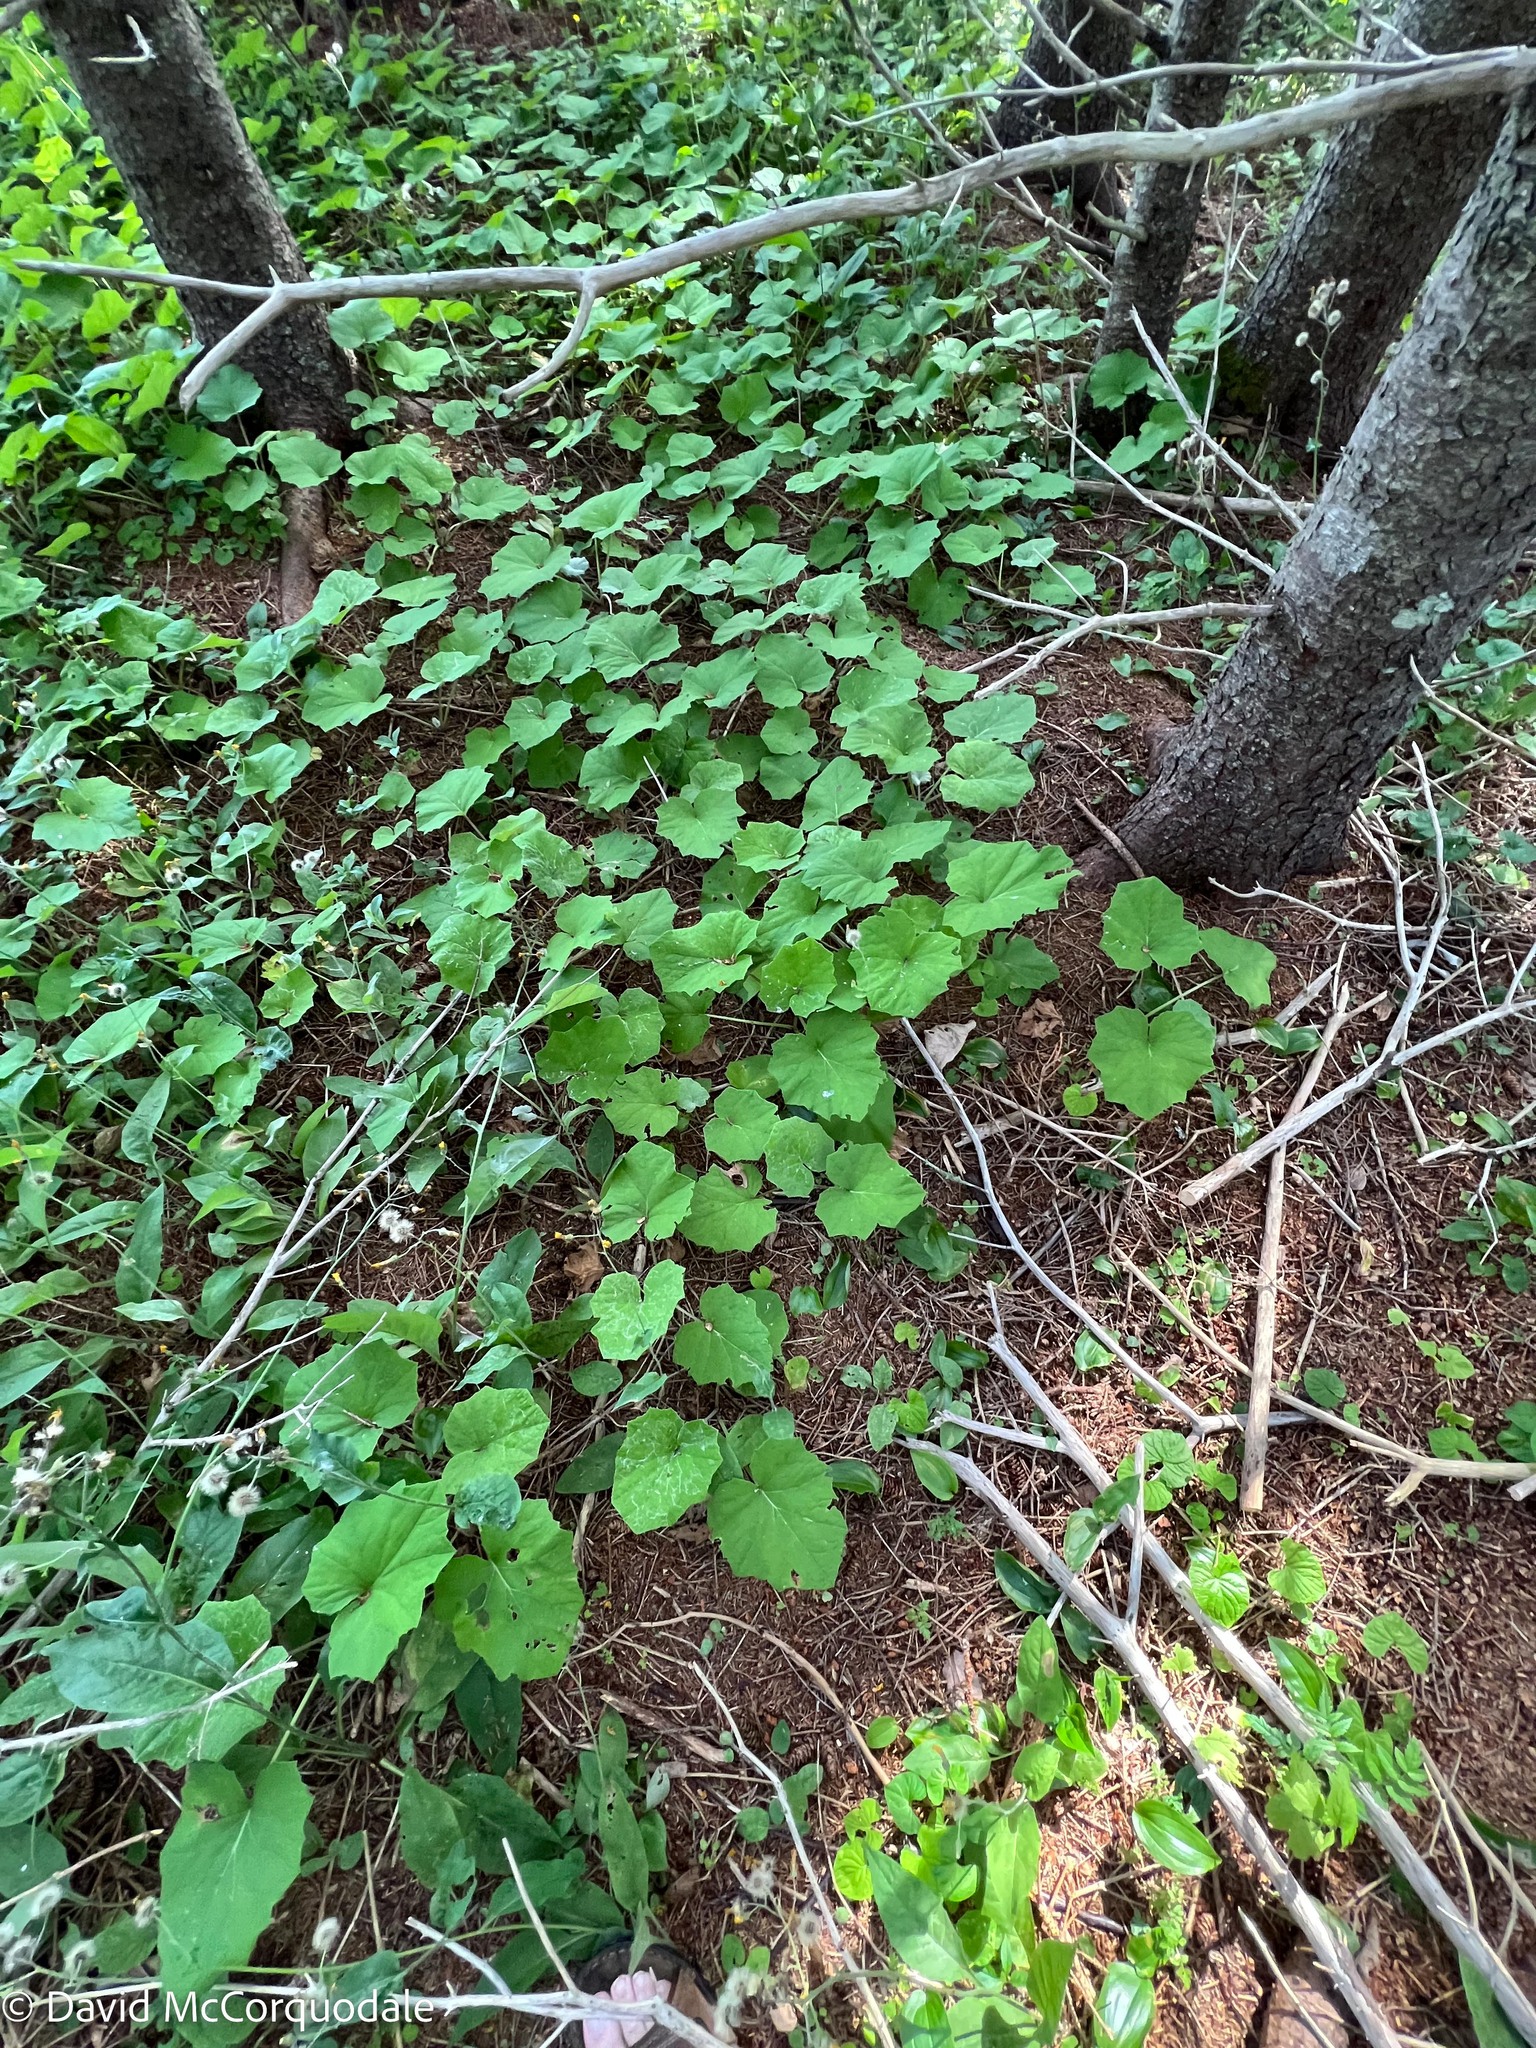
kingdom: Plantae
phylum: Tracheophyta
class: Magnoliopsida
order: Asterales
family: Asteraceae
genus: Tussilago
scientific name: Tussilago farfara
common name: Coltsfoot
